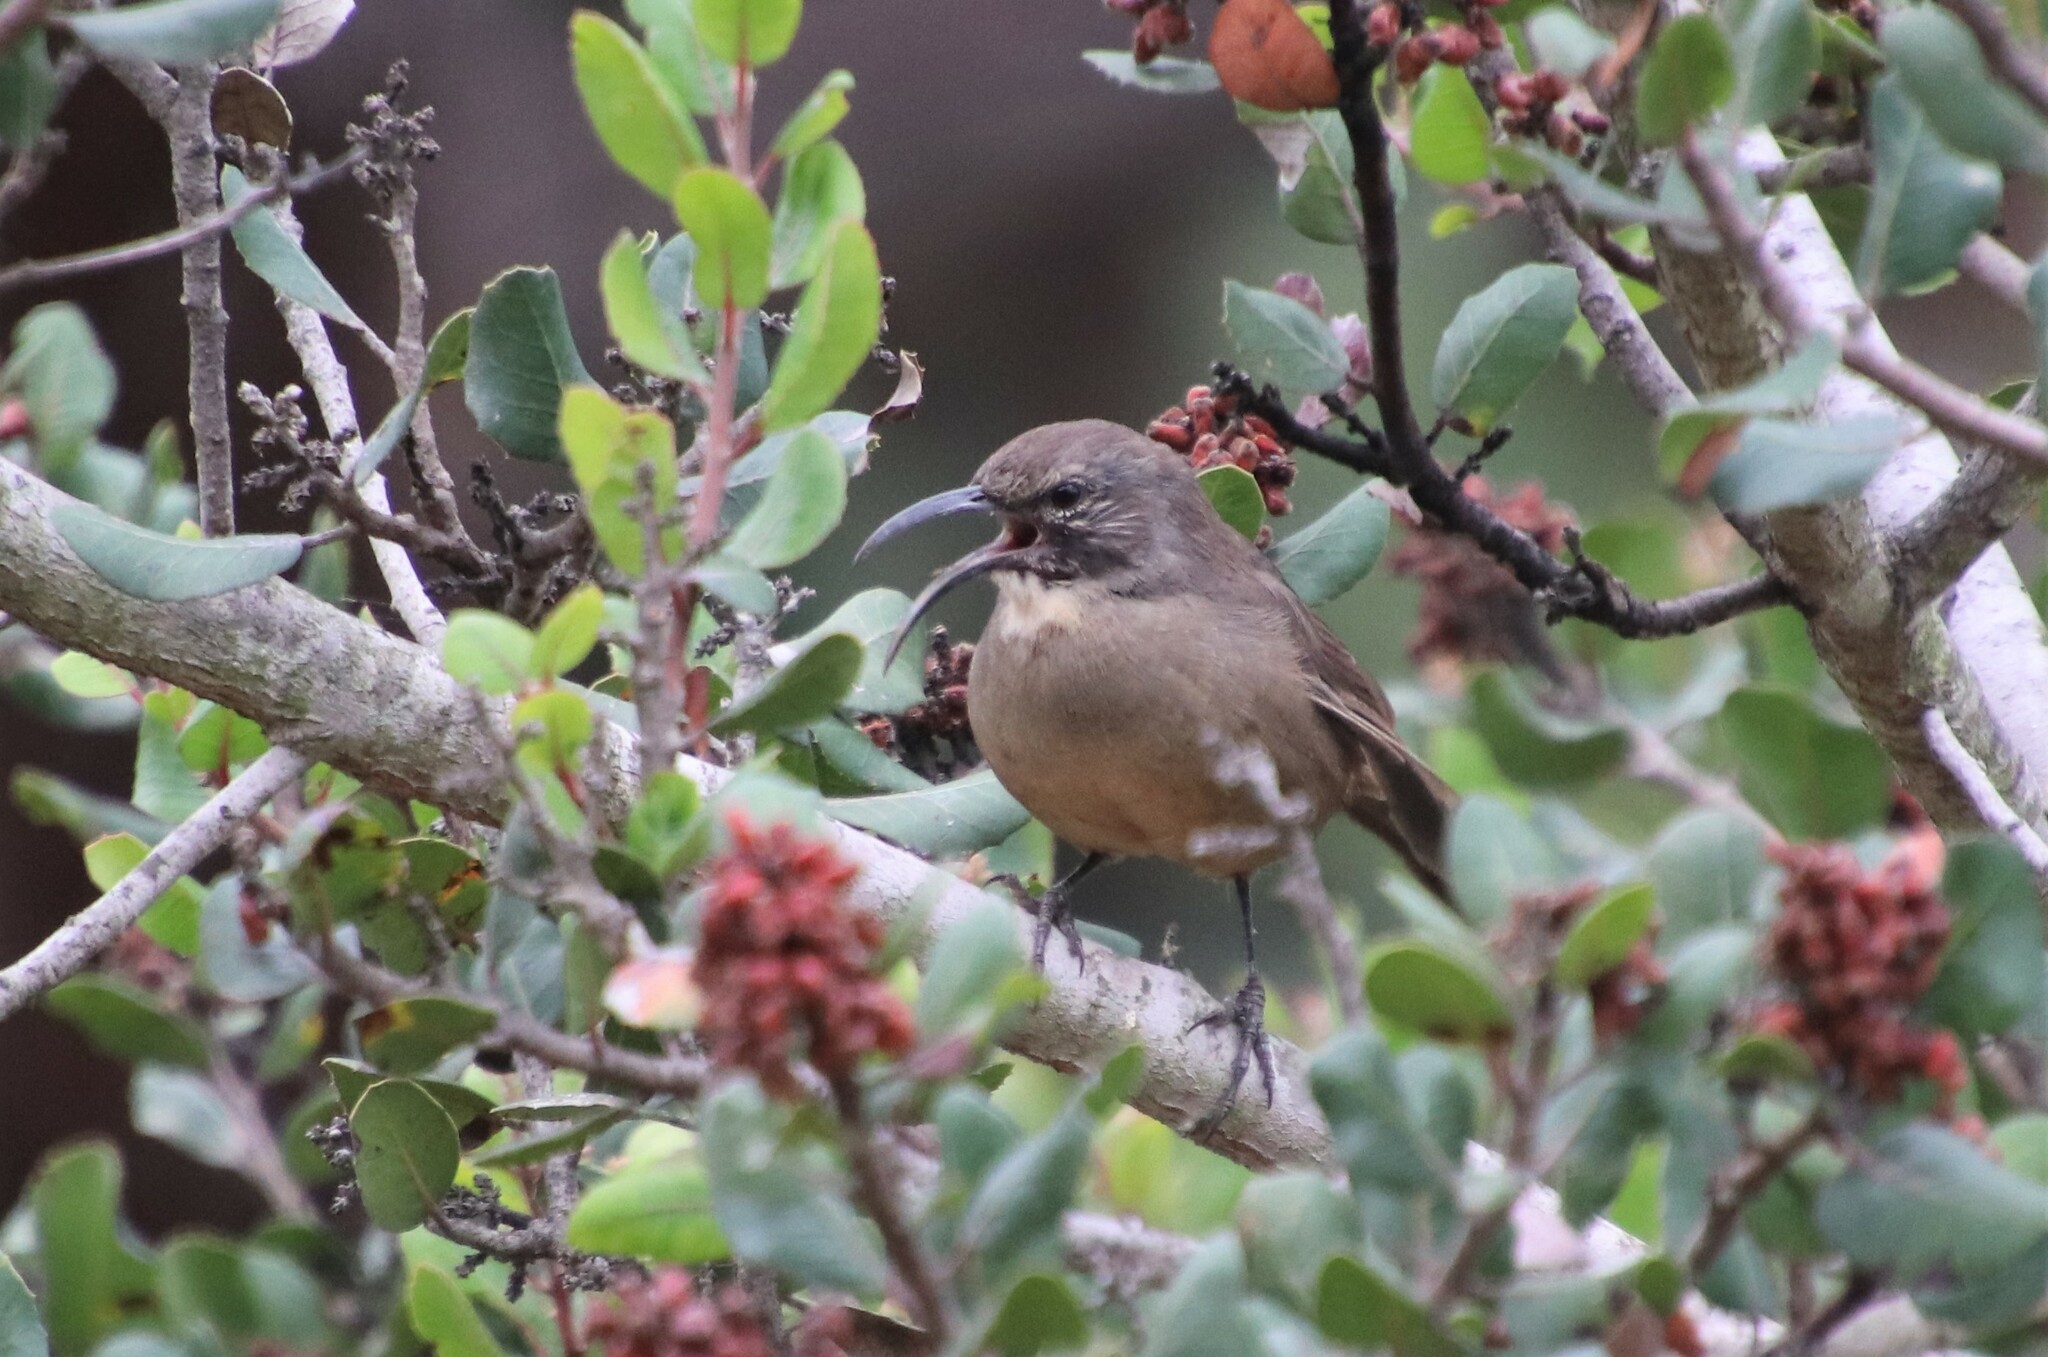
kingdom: Animalia
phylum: Chordata
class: Aves
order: Passeriformes
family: Mimidae
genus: Toxostoma
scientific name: Toxostoma redivivum
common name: California thrasher
